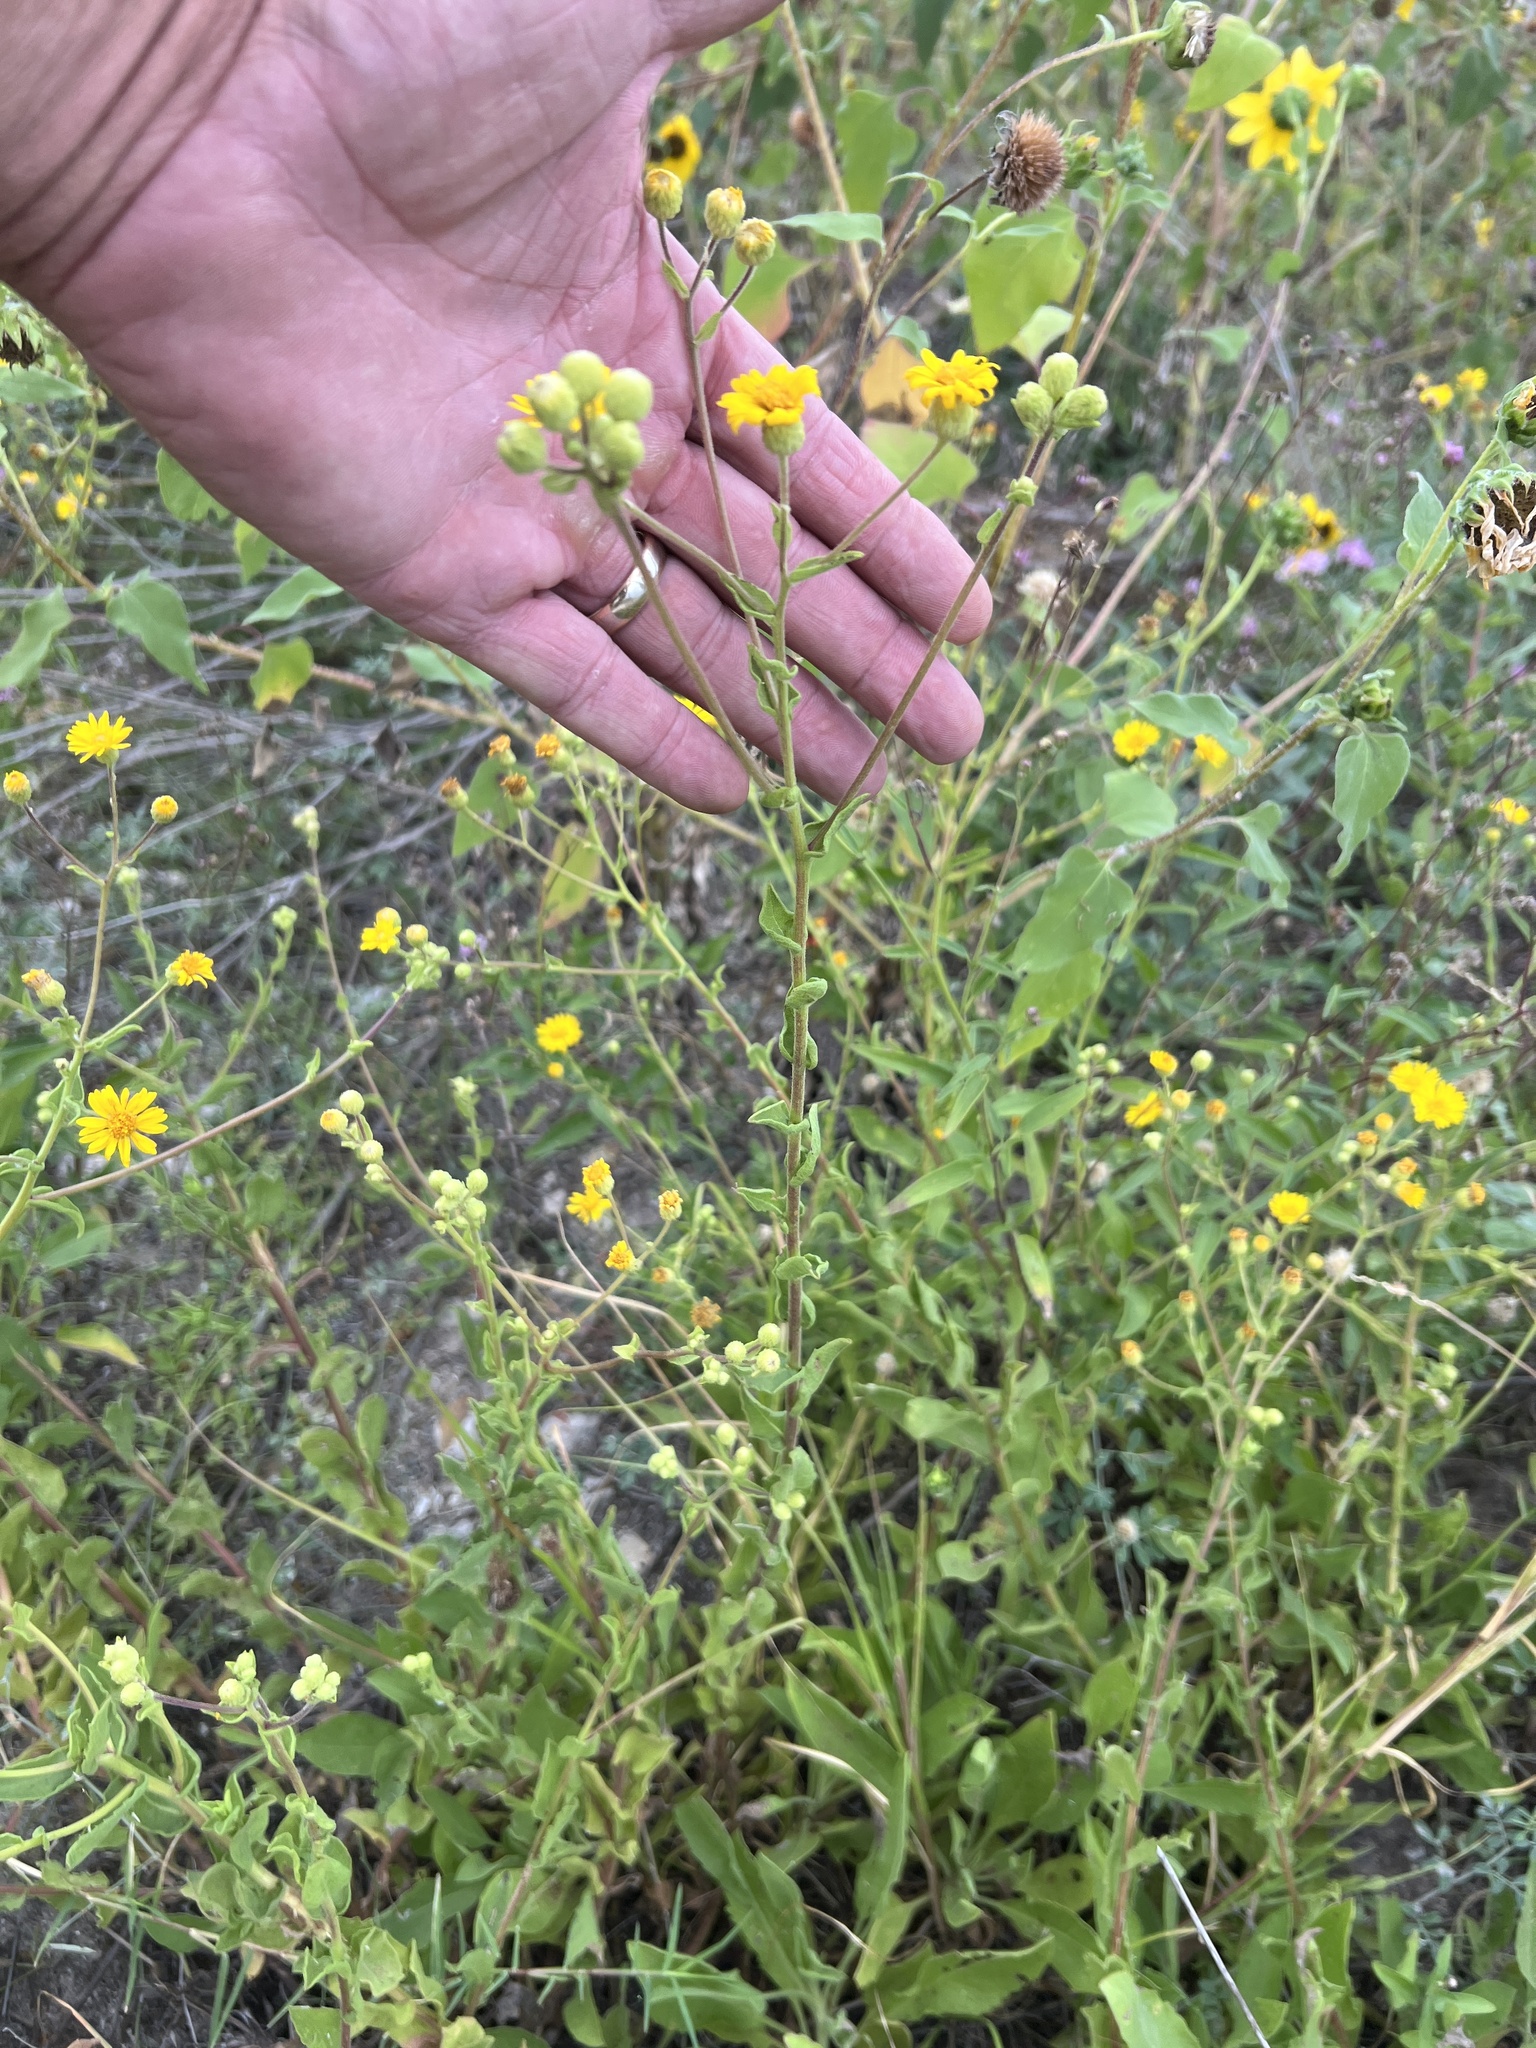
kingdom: Plantae
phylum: Tracheophyta
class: Magnoliopsida
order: Asterales
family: Asteraceae
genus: Heterotheca
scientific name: Heterotheca subaxillaris
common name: Camphorweed
